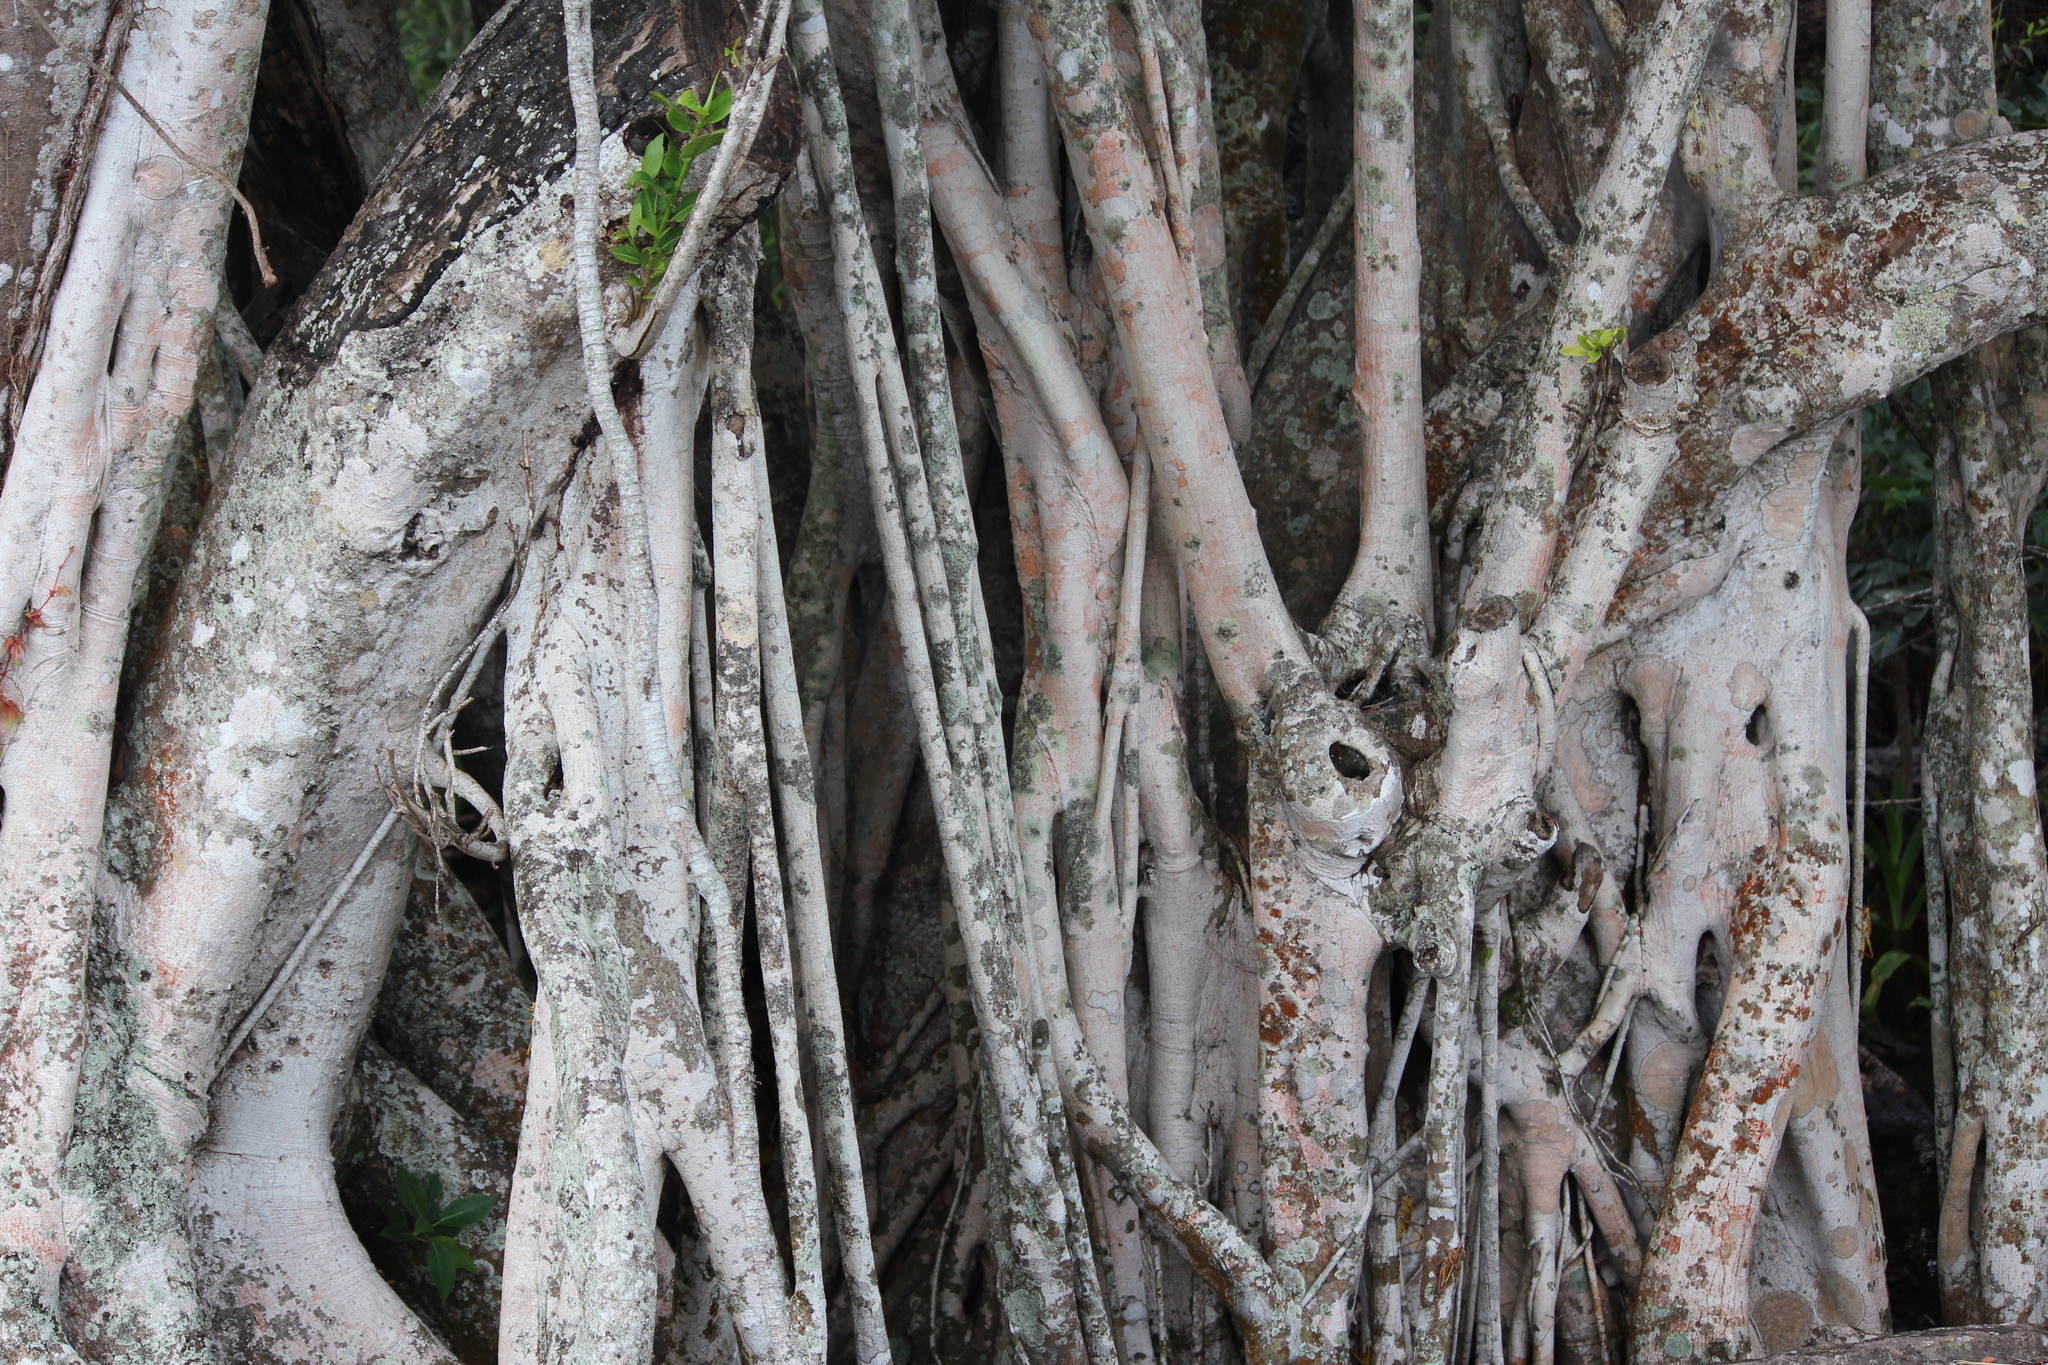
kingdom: Plantae
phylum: Tracheophyta
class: Magnoliopsida
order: Rosales
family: Moraceae
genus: Ficus
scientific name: Ficus aurea
